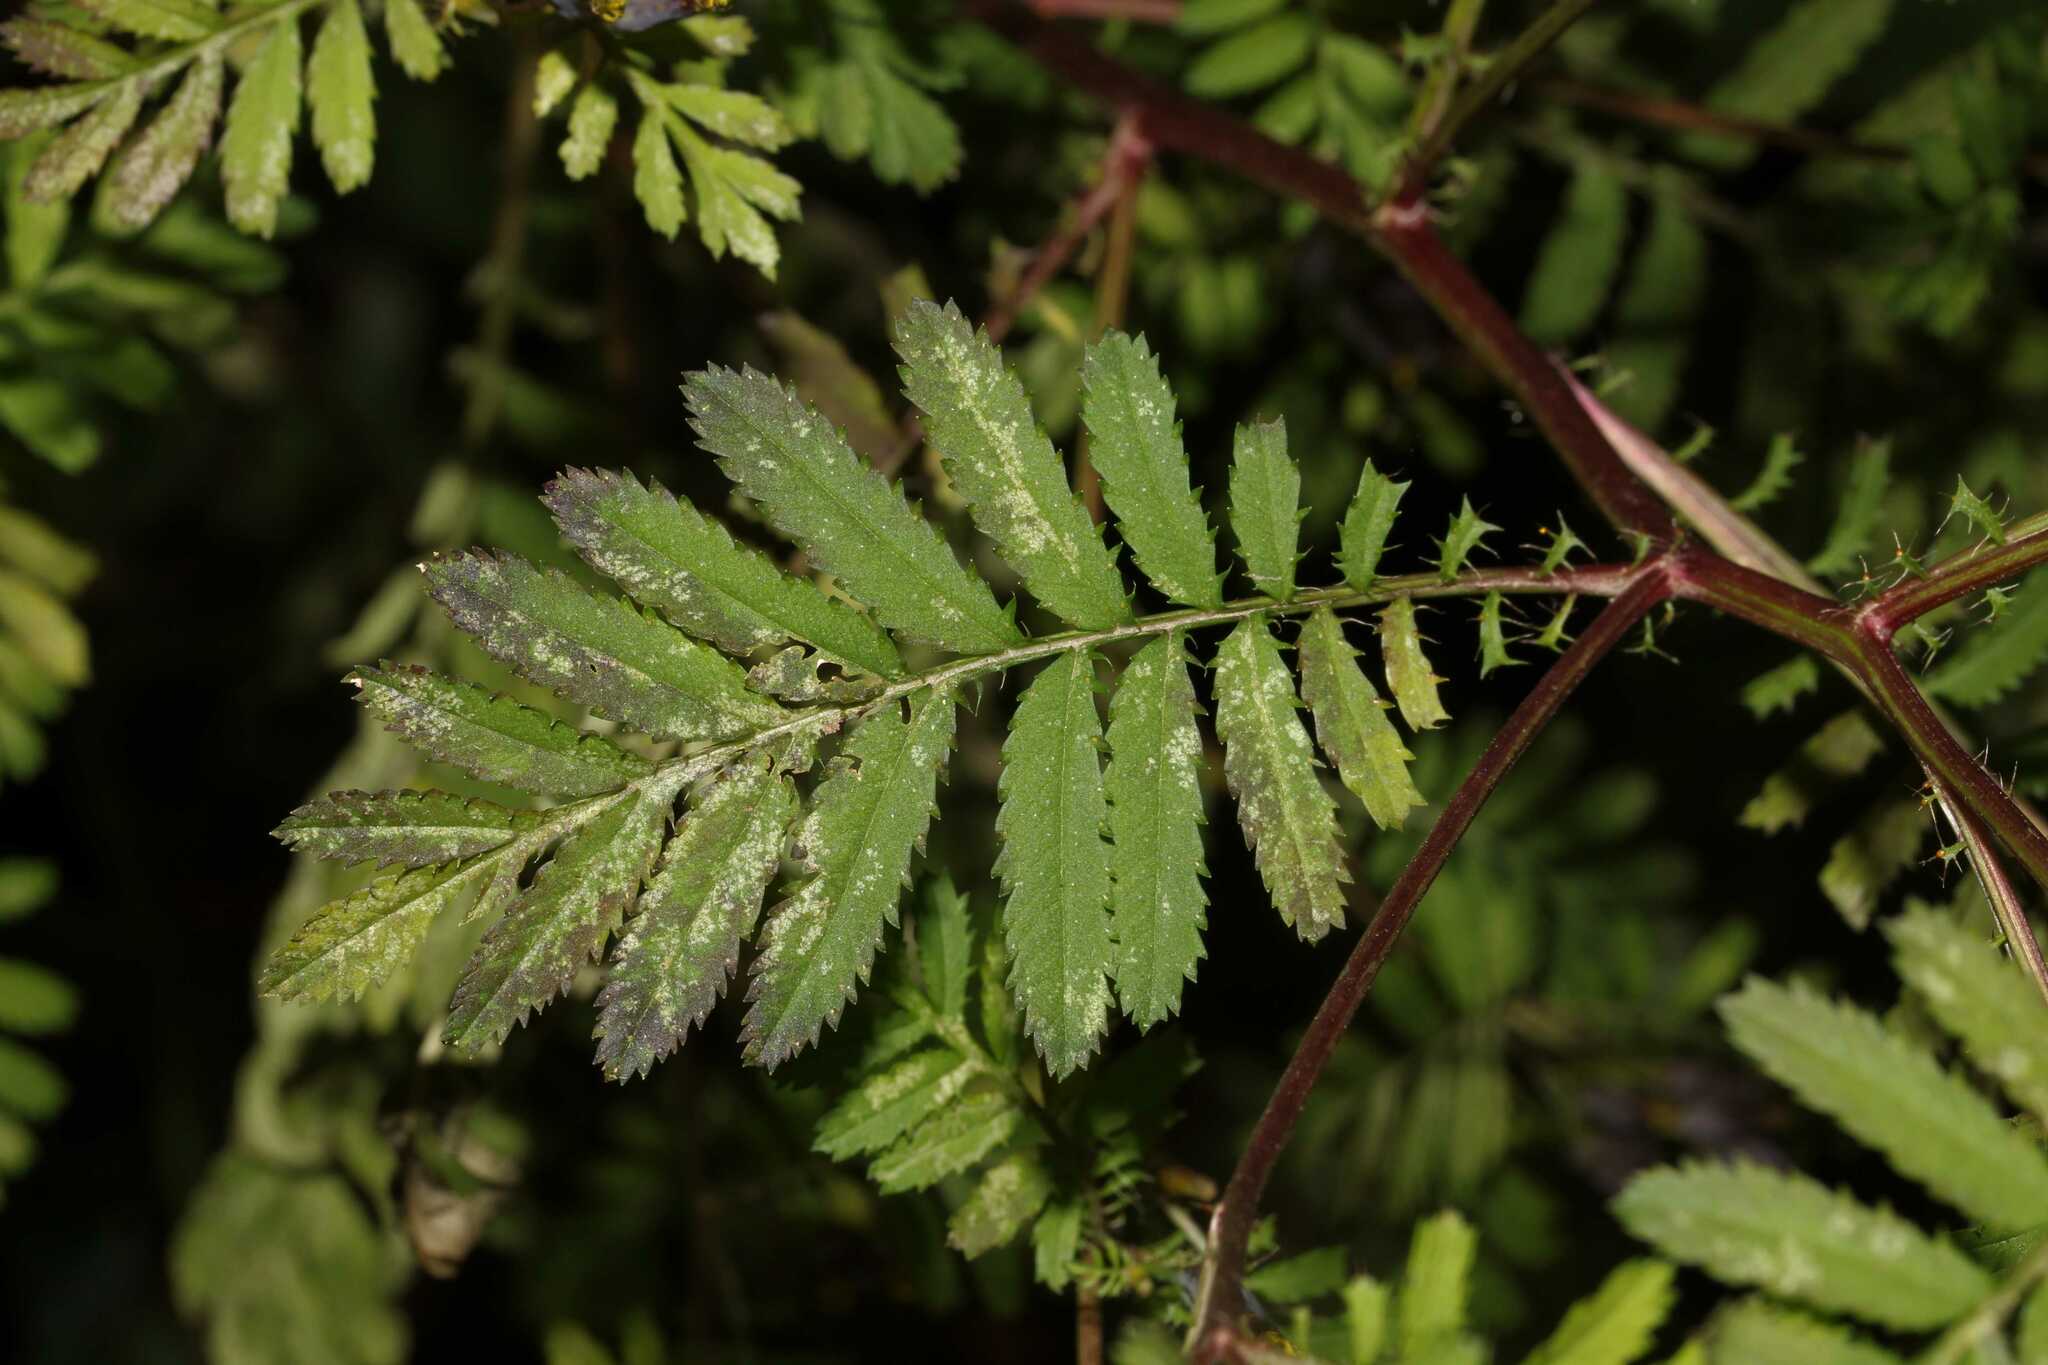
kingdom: Plantae
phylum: Tracheophyta
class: Magnoliopsida
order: Asterales
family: Asteraceae
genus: Tagetes
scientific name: Tagetes foetidissima
